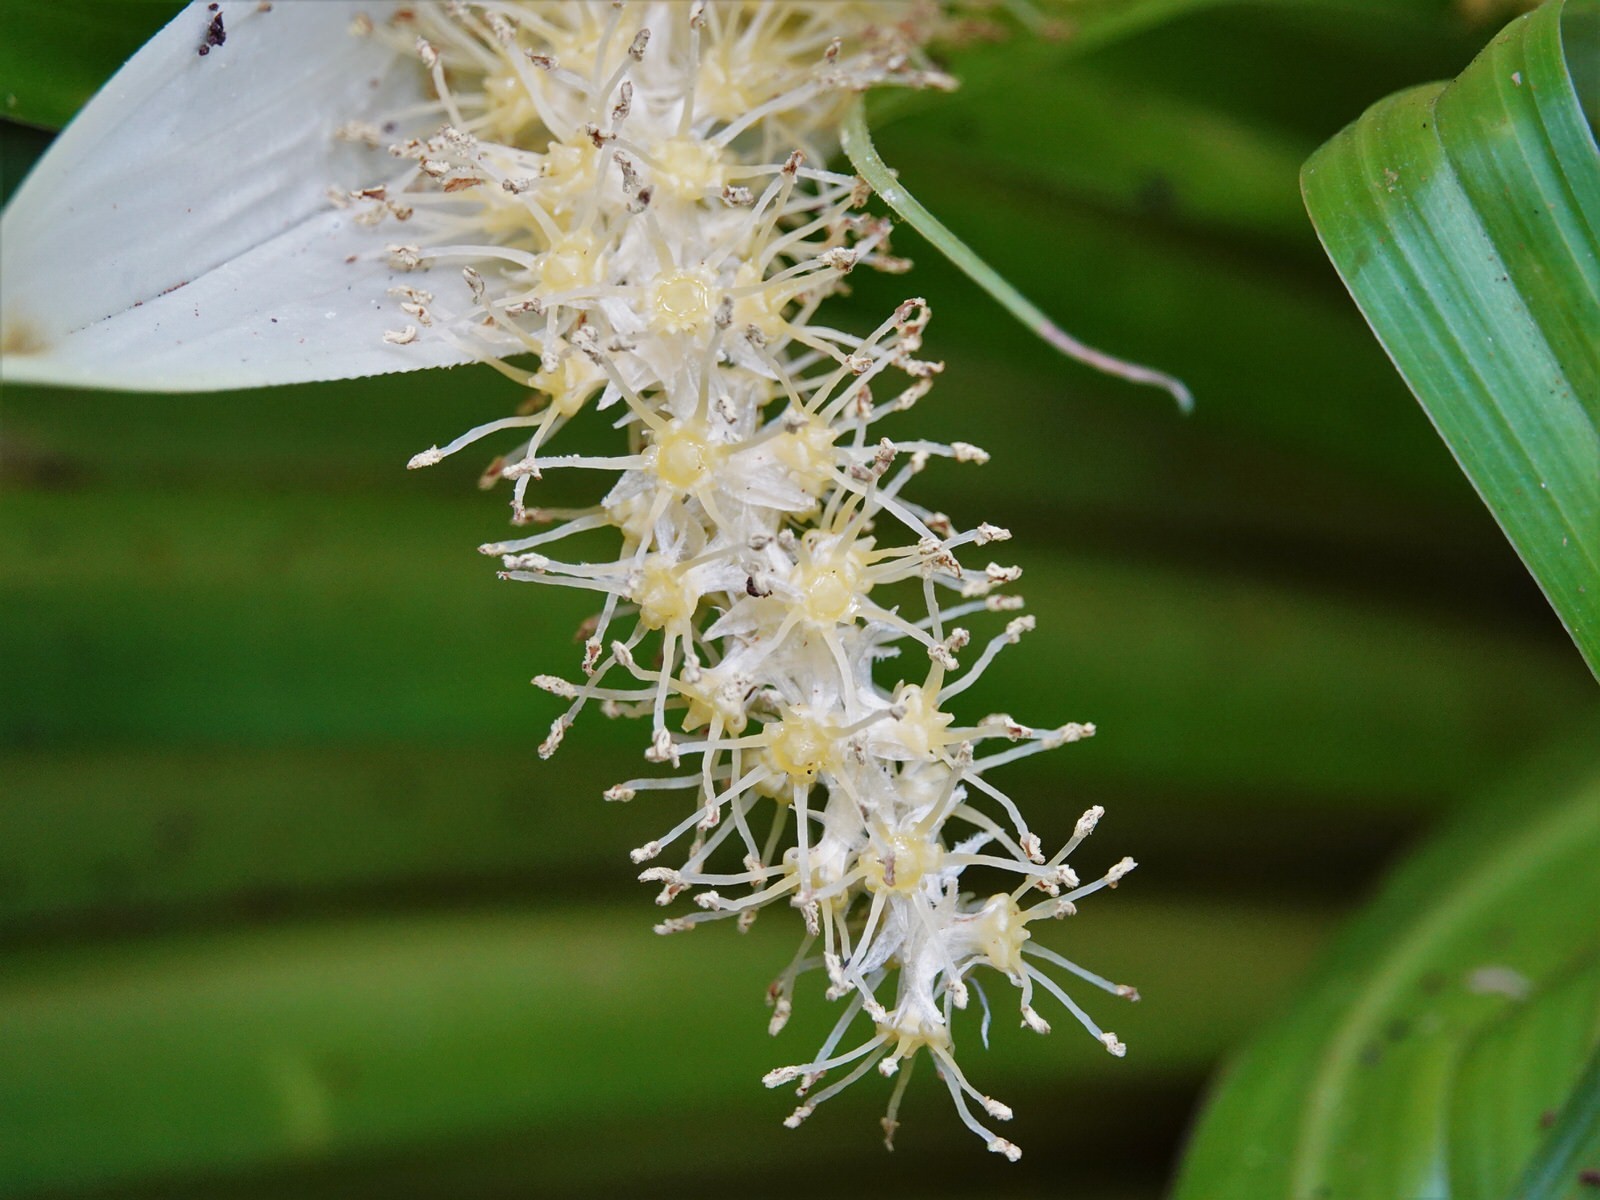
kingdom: Plantae
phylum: Tracheophyta
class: Liliopsida
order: Asparagales
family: Asteliaceae
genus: Astelia
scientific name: Astelia hastata
